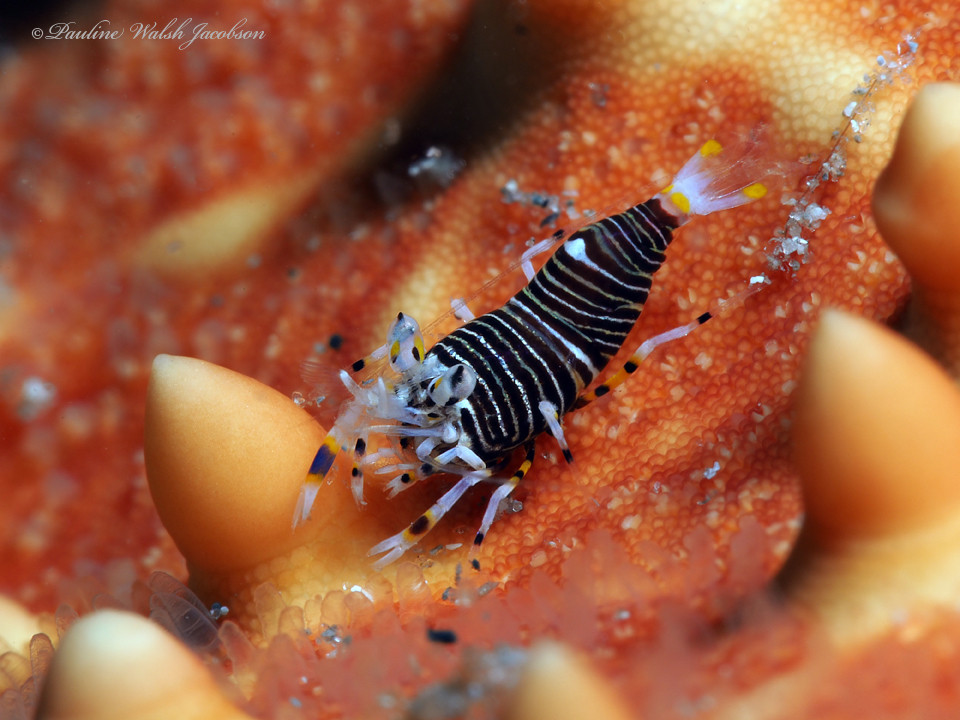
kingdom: Animalia
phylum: Arthropoda
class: Malacostraca
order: Decapoda
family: Palaemonidae
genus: Gnathophyllum
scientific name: Gnathophyllum americanum
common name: Bumblebee shrimp
